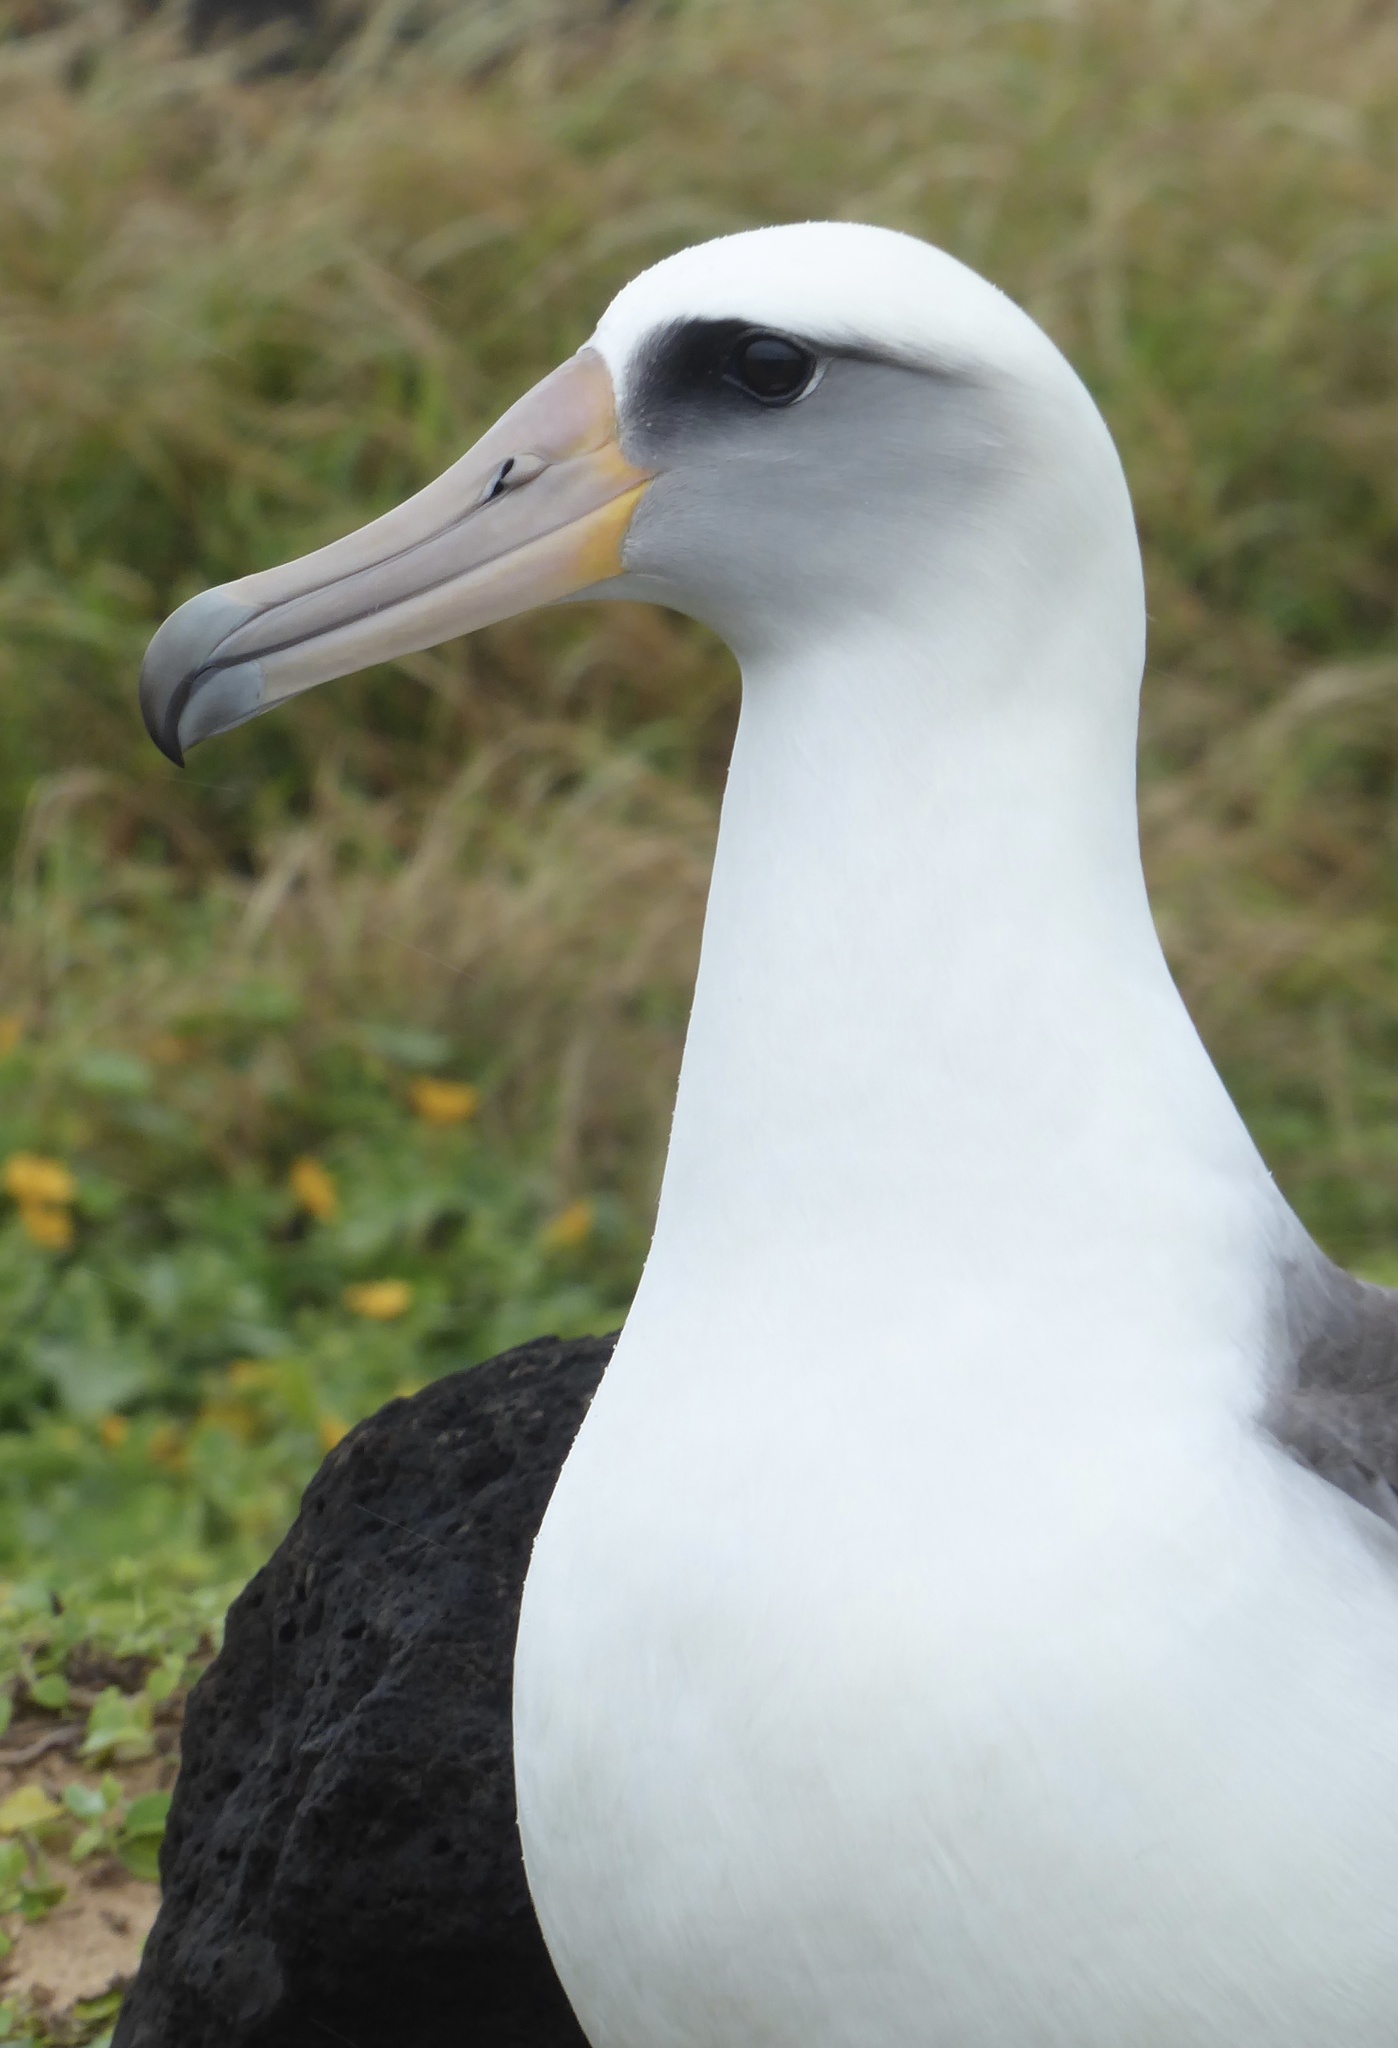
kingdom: Animalia
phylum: Chordata
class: Aves
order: Procellariiformes
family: Diomedeidae
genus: Phoebastria
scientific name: Phoebastria immutabilis
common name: Laysan albatross
